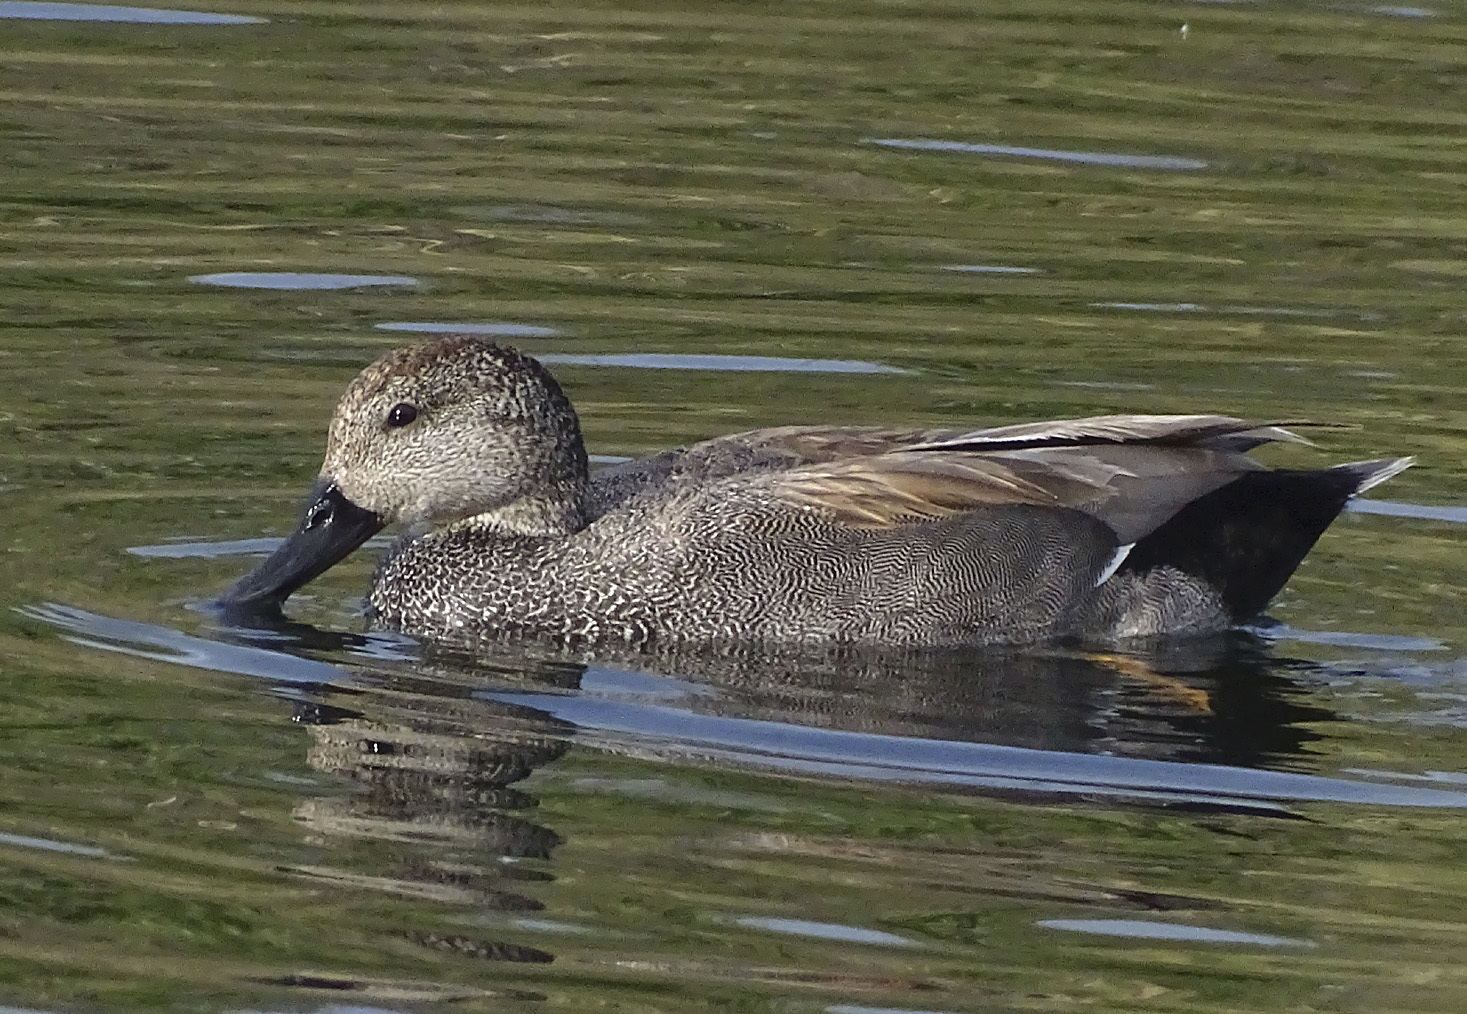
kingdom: Animalia
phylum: Chordata
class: Aves
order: Anseriformes
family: Anatidae
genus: Mareca
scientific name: Mareca strepera
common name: Gadwall
